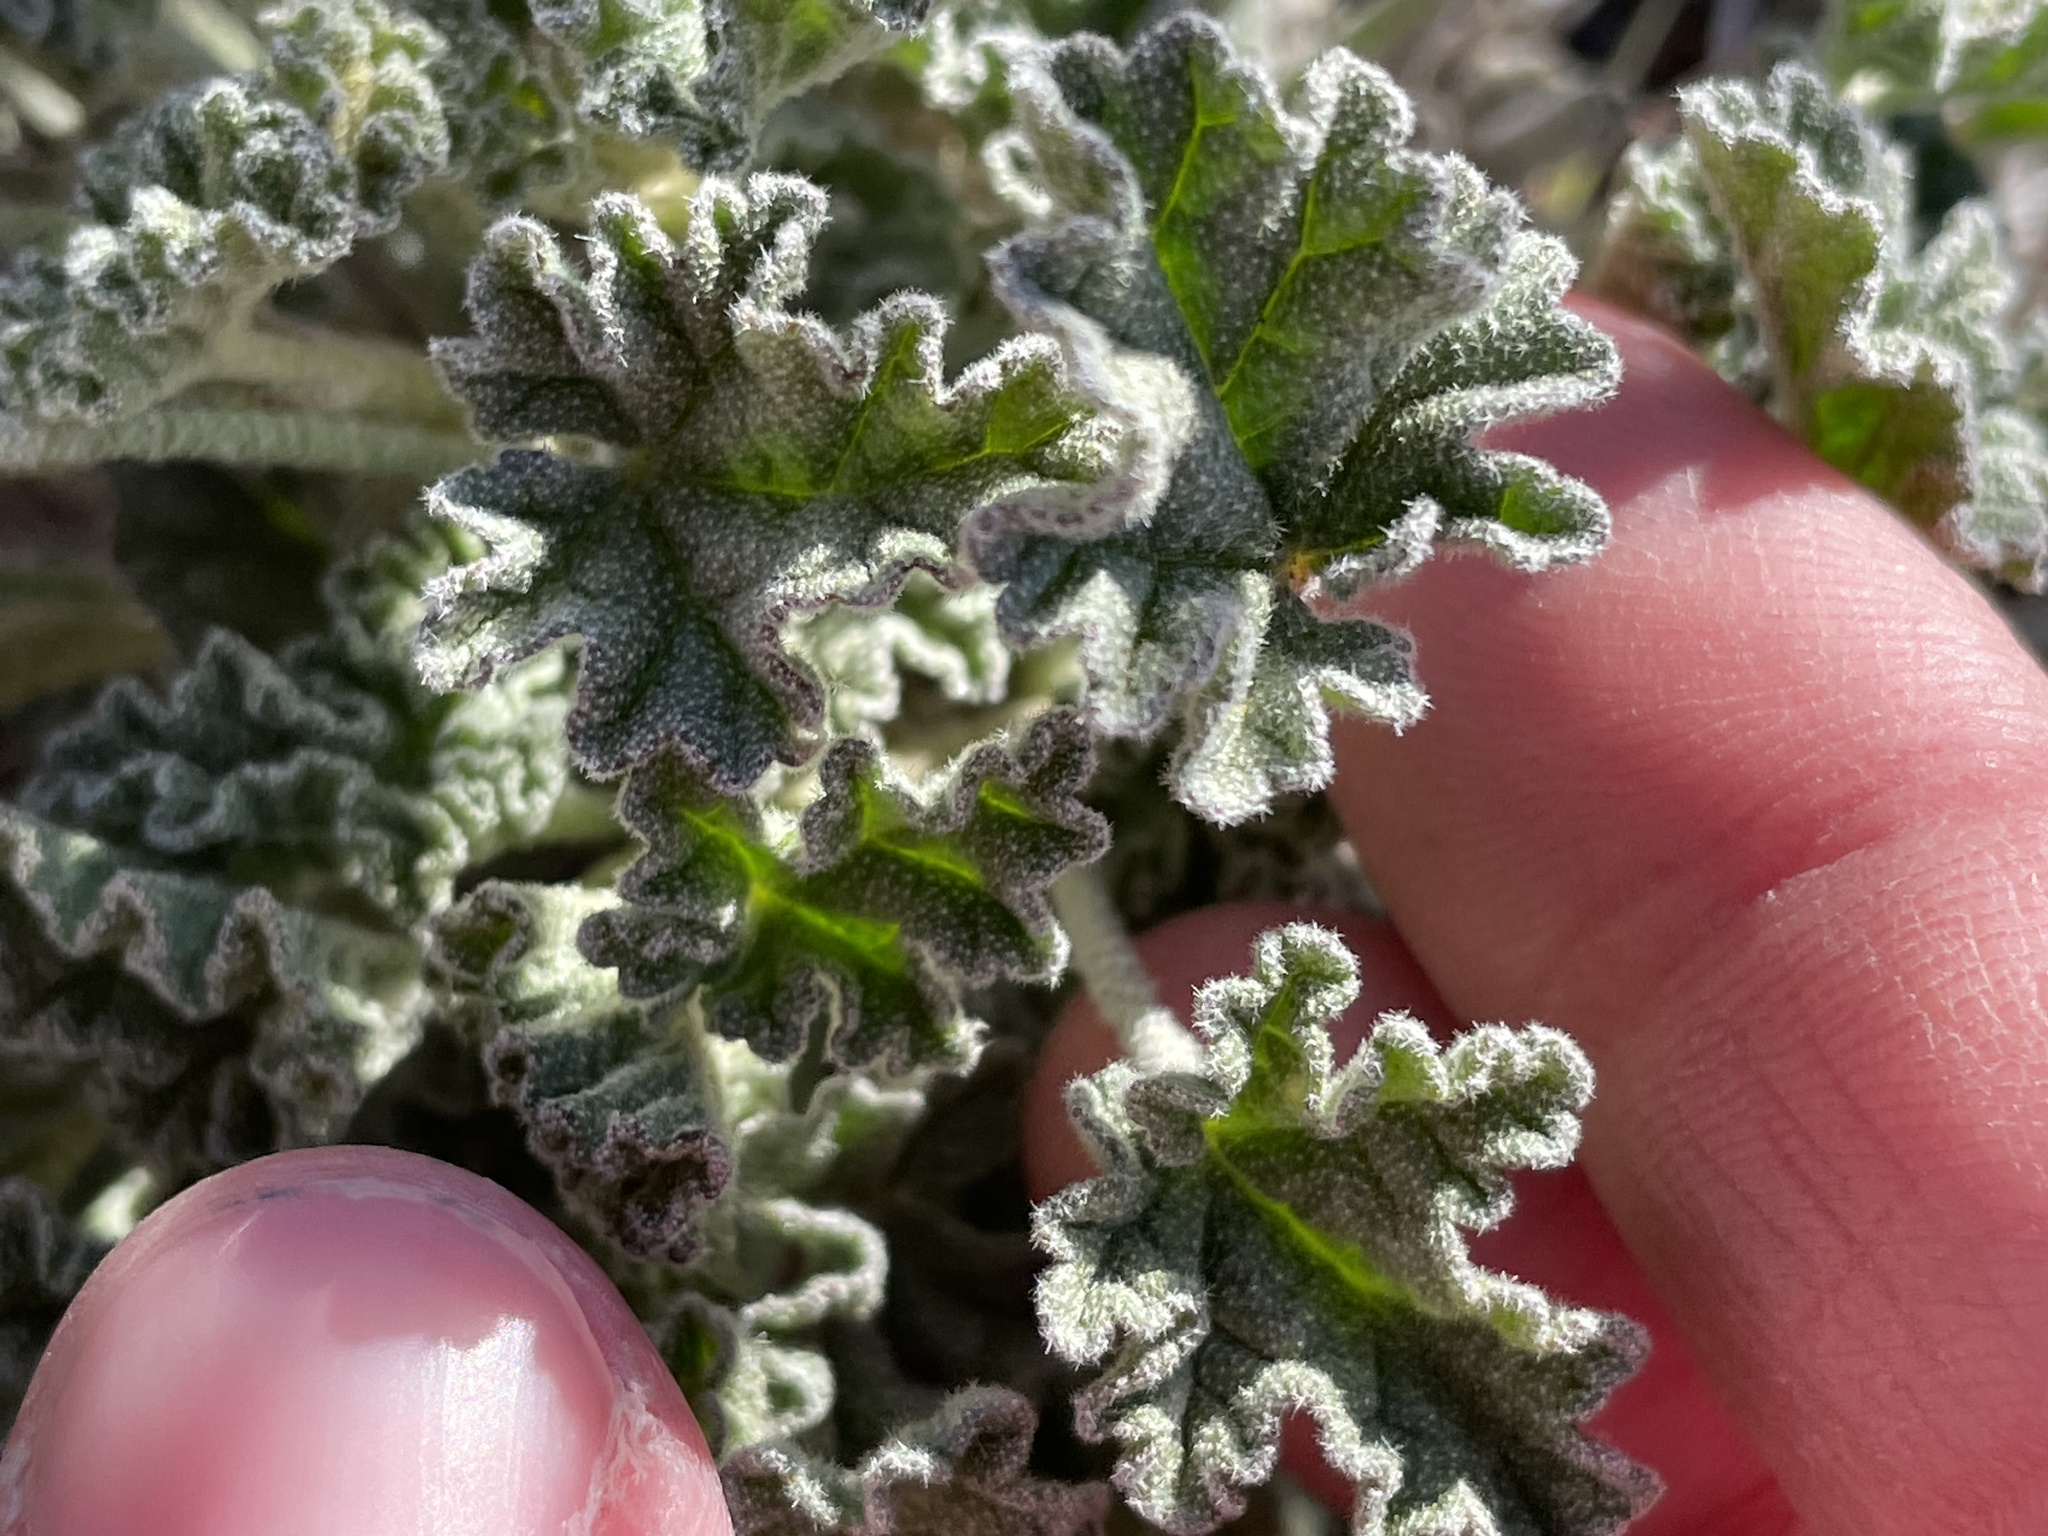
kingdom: Plantae
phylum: Tracheophyta
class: Magnoliopsida
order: Malvales
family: Malvaceae
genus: Sphaeralcea
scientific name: Sphaeralcea ambigua
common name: Apricot globe-mallow
